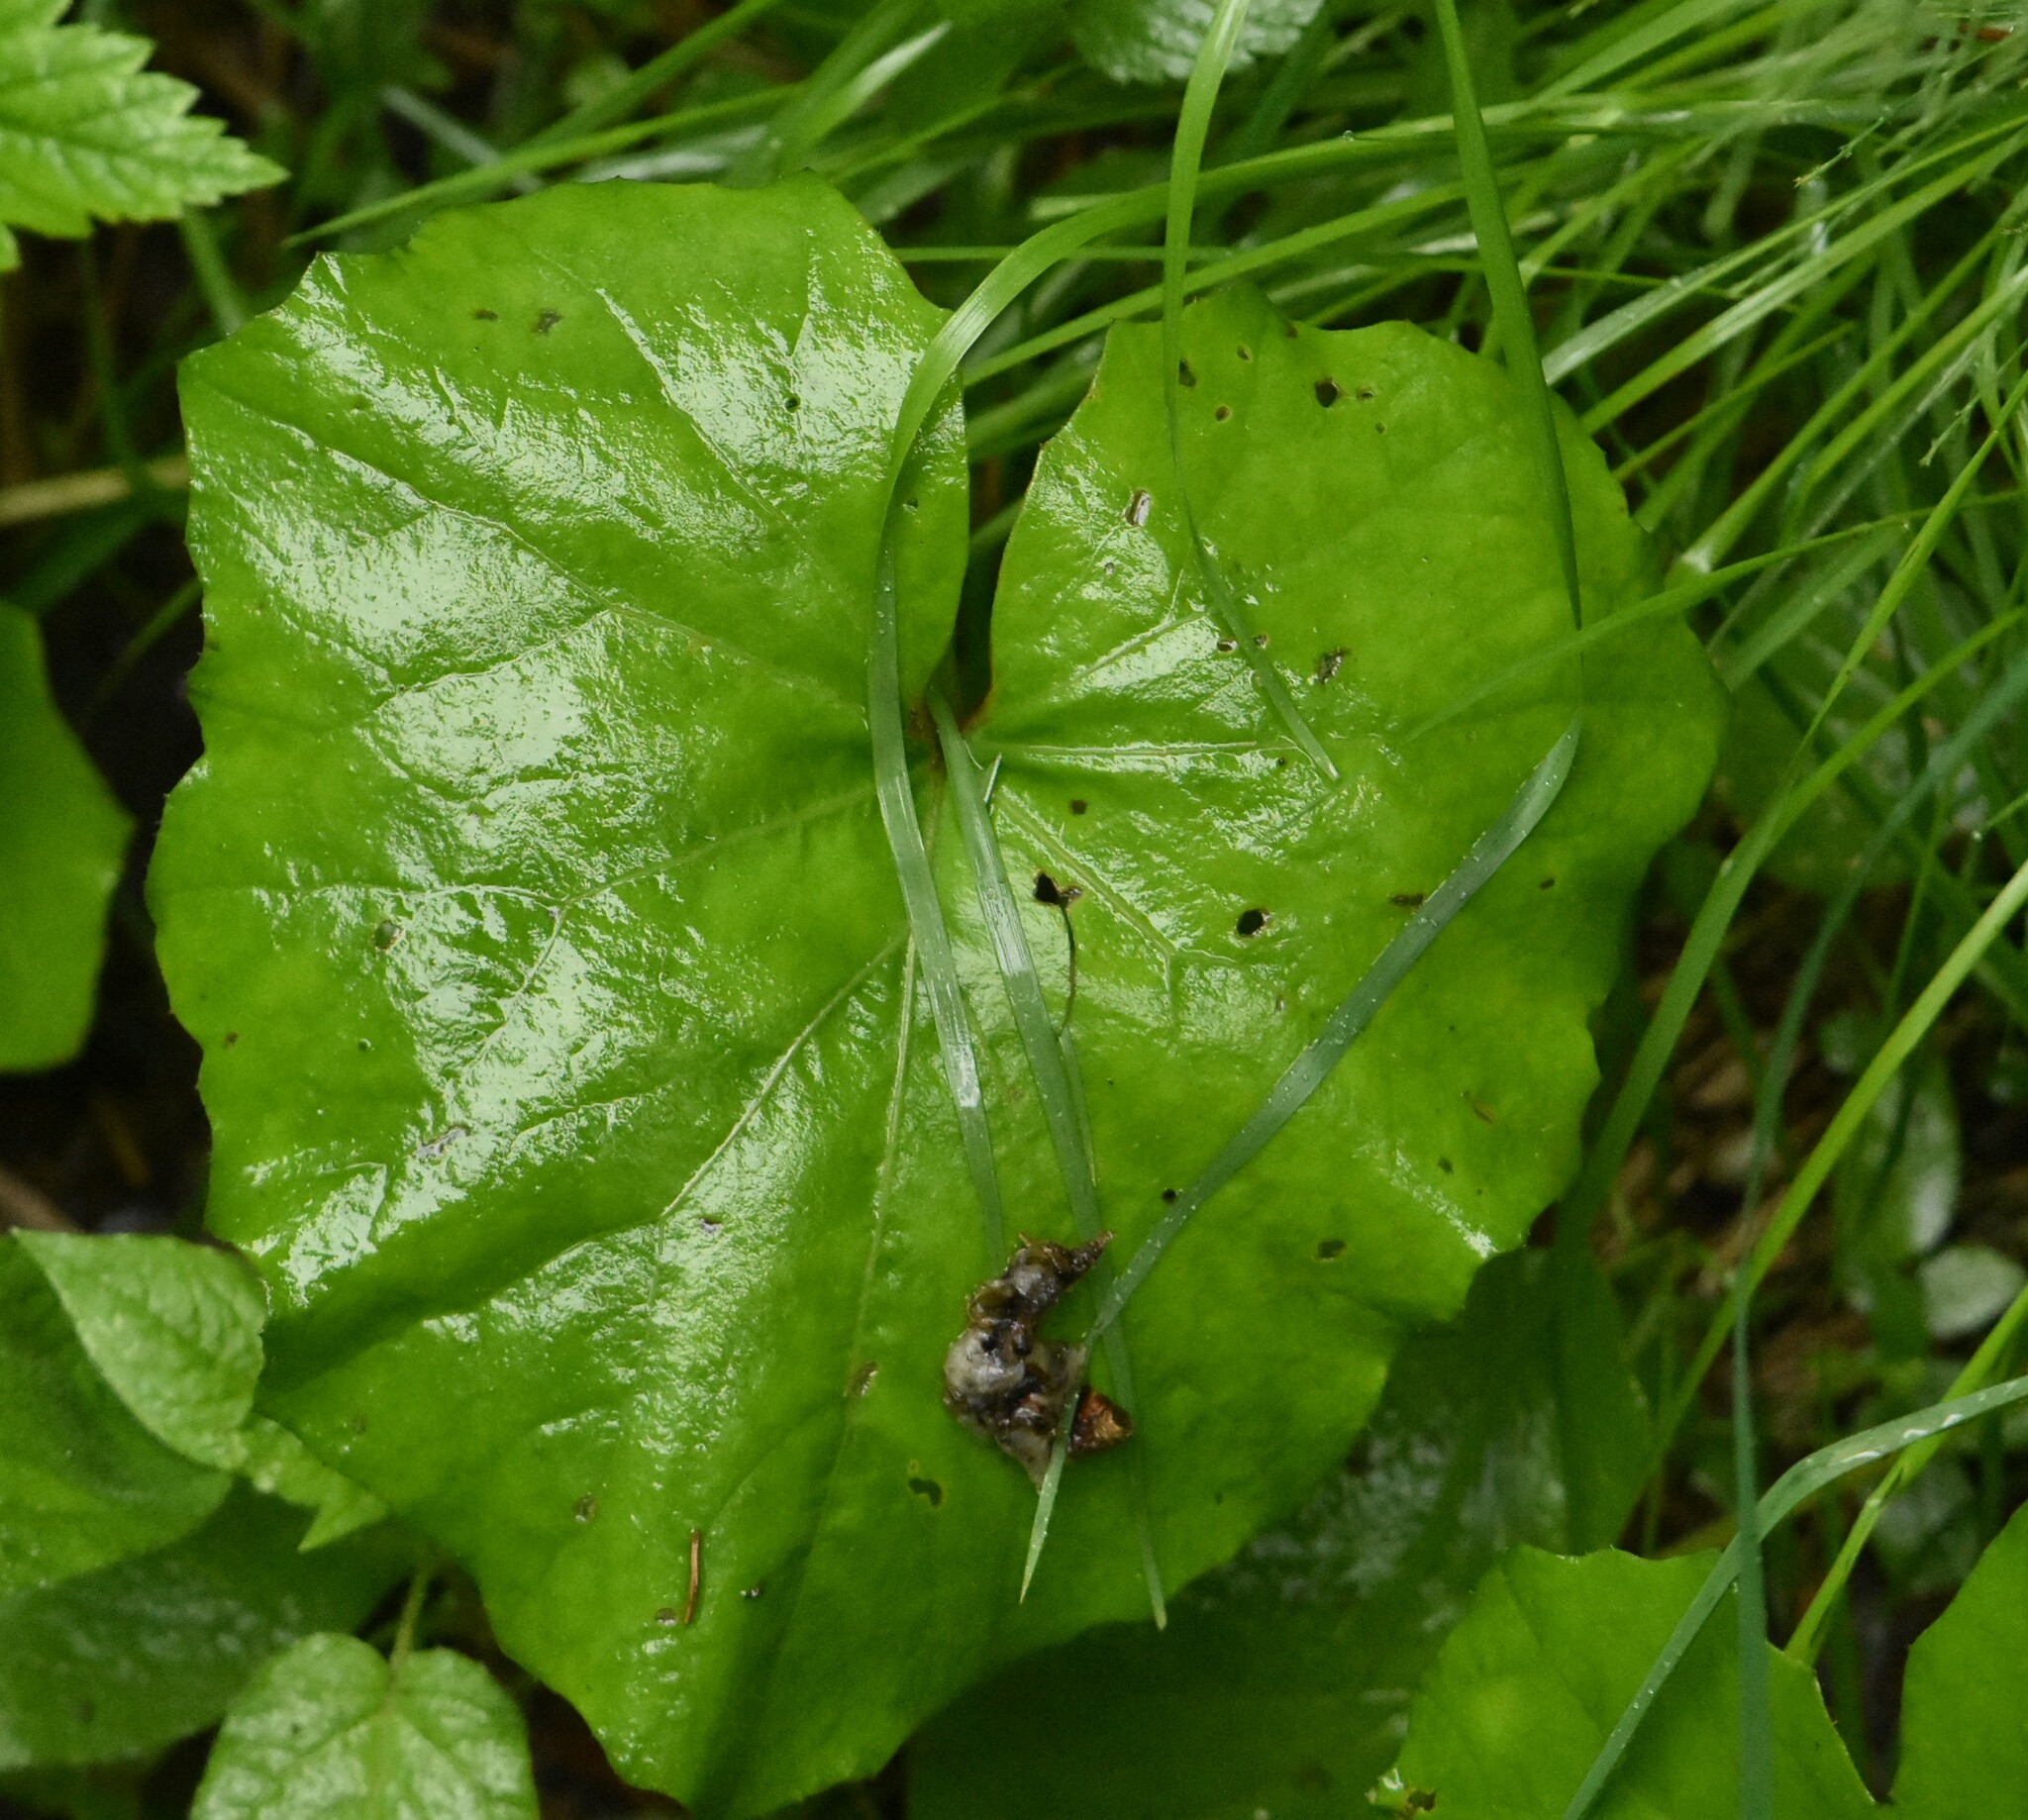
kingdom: Plantae
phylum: Tracheophyta
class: Magnoliopsida
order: Asterales
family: Asteraceae
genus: Tussilago
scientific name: Tussilago farfara
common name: Coltsfoot
